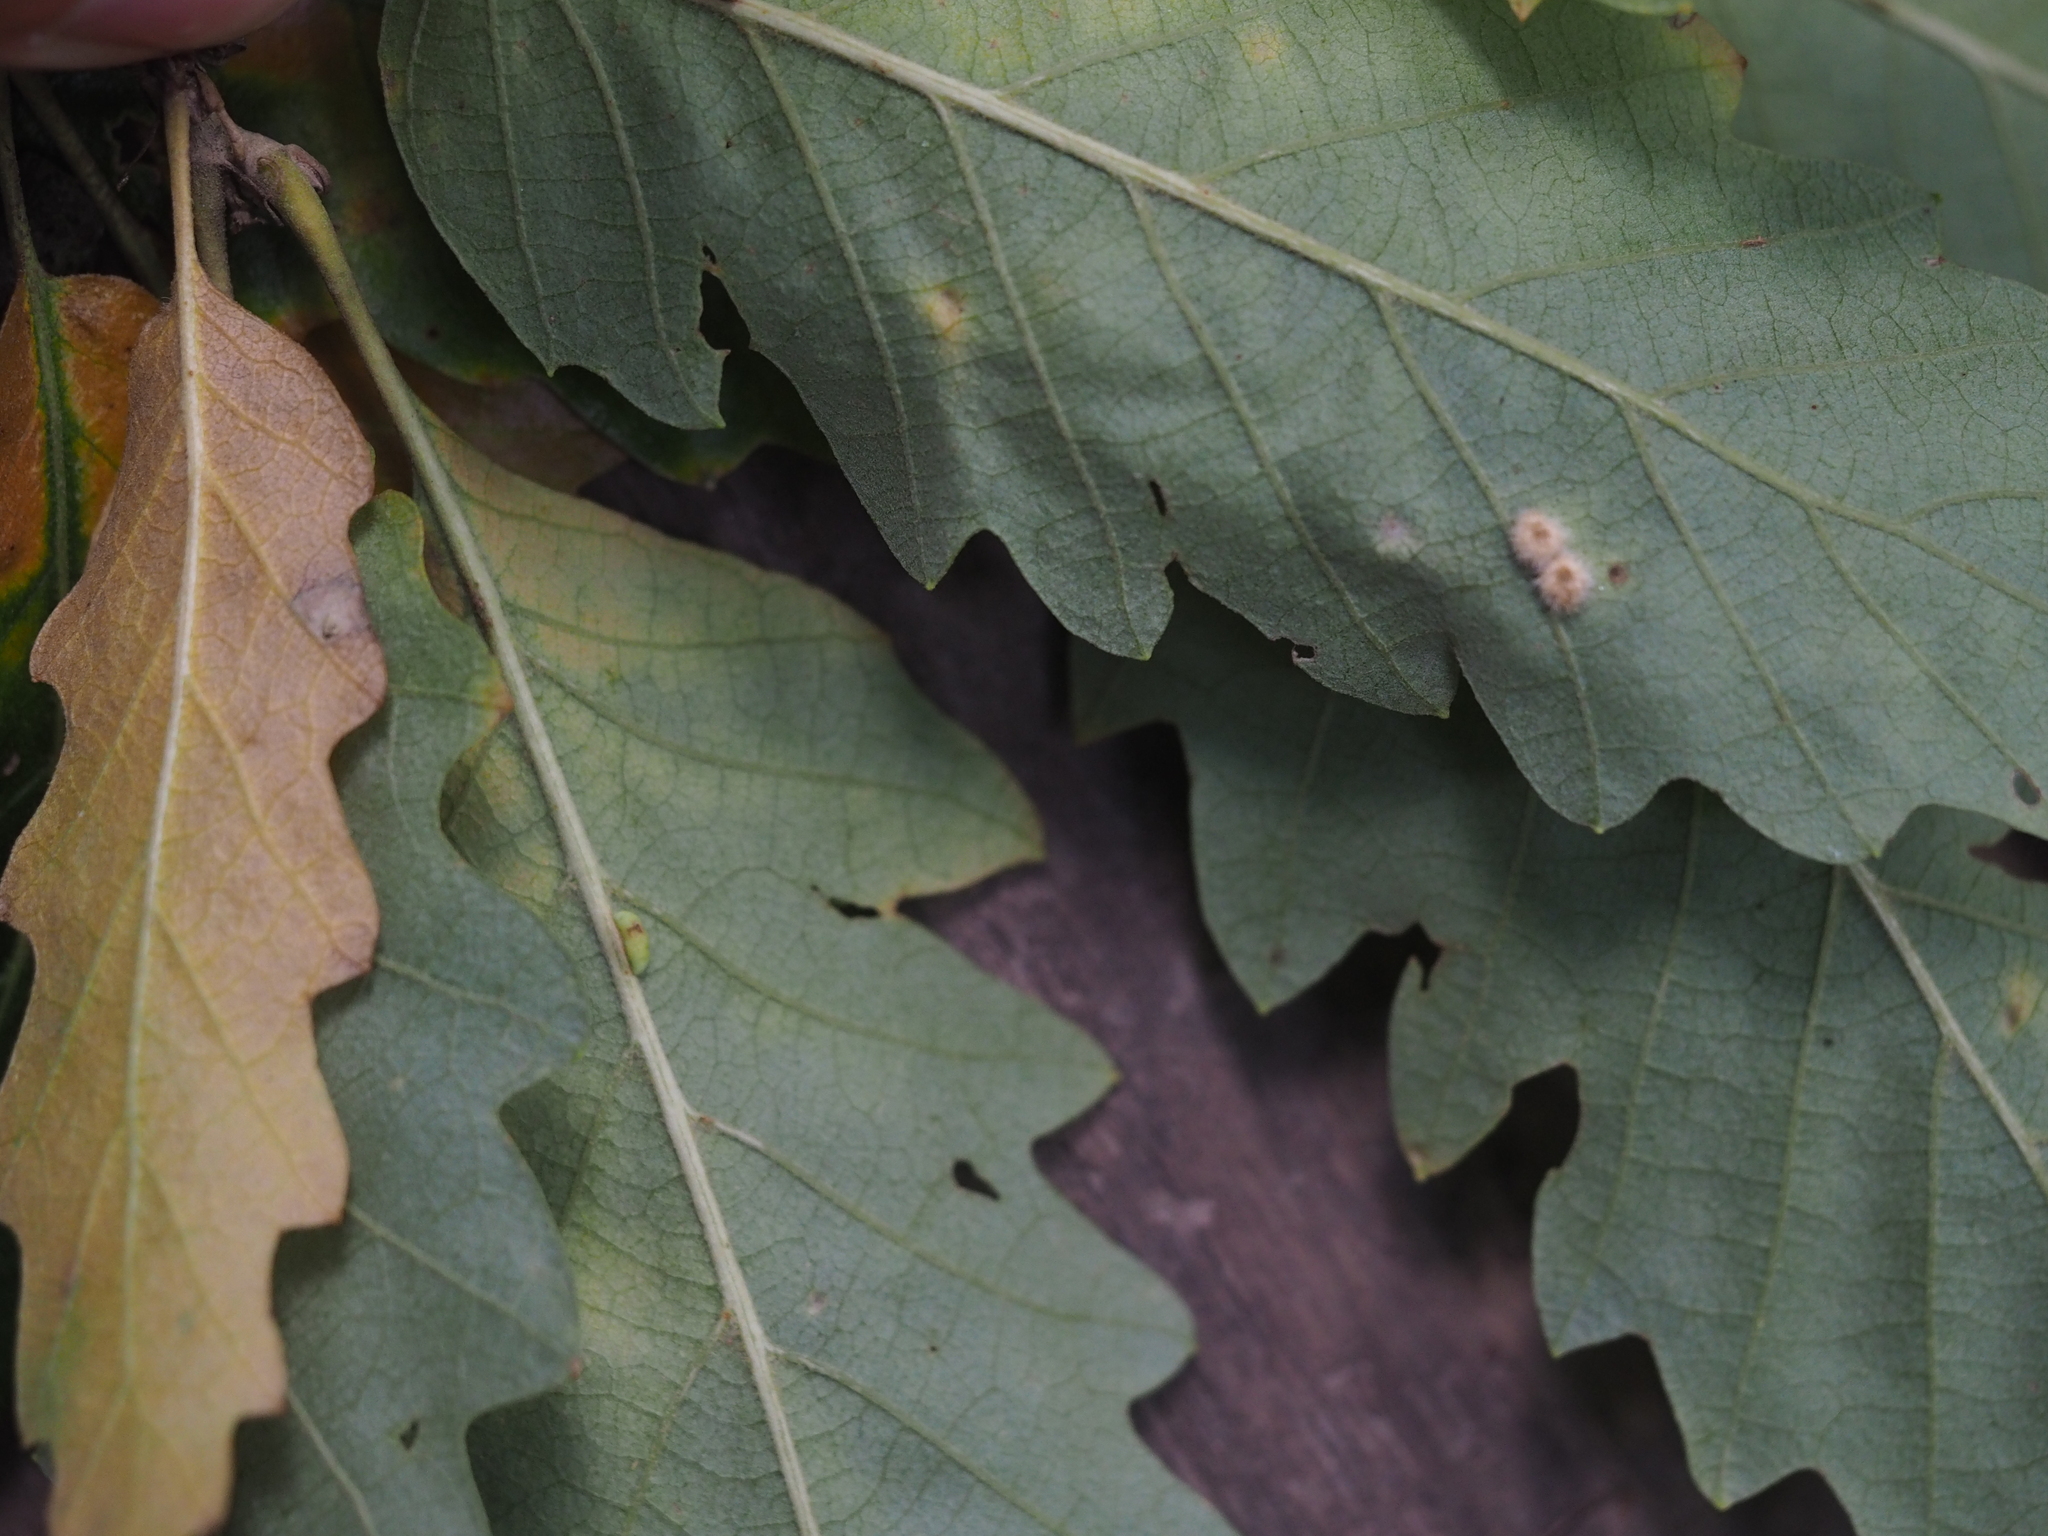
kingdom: Animalia
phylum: Arthropoda
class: Insecta
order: Hymenoptera
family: Cynipidae
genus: Neuroterus
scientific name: Neuroterus saliens
